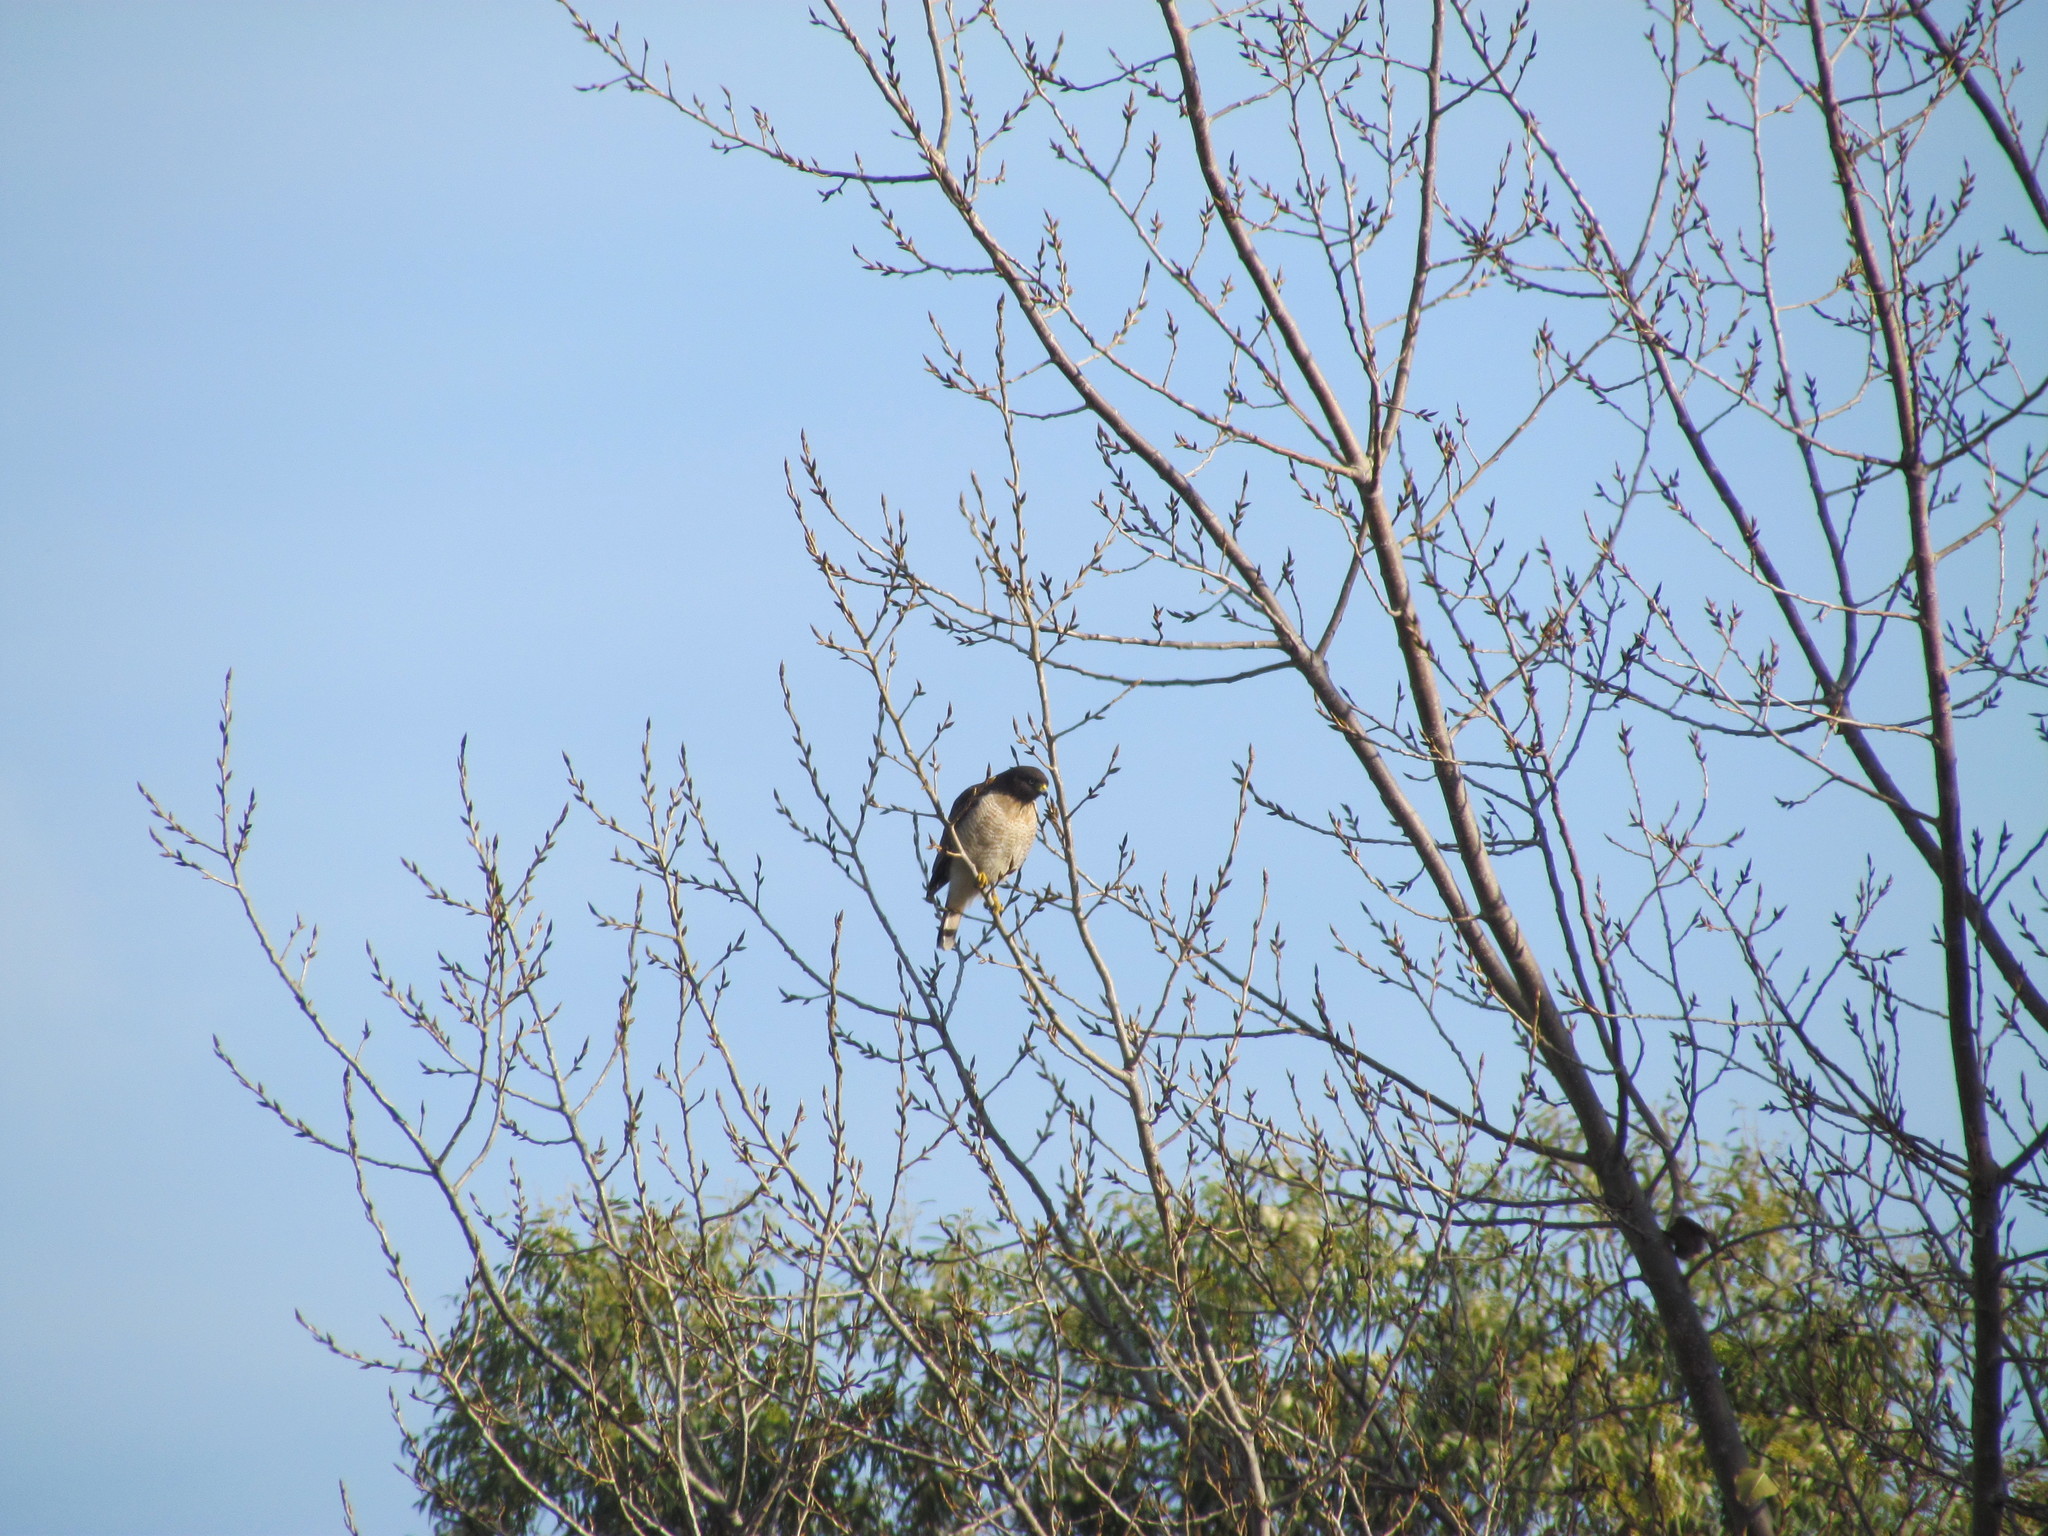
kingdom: Animalia
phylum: Chordata
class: Aves
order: Accipitriformes
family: Accipitridae
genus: Rupornis
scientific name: Rupornis magnirostris
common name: Roadside hawk
